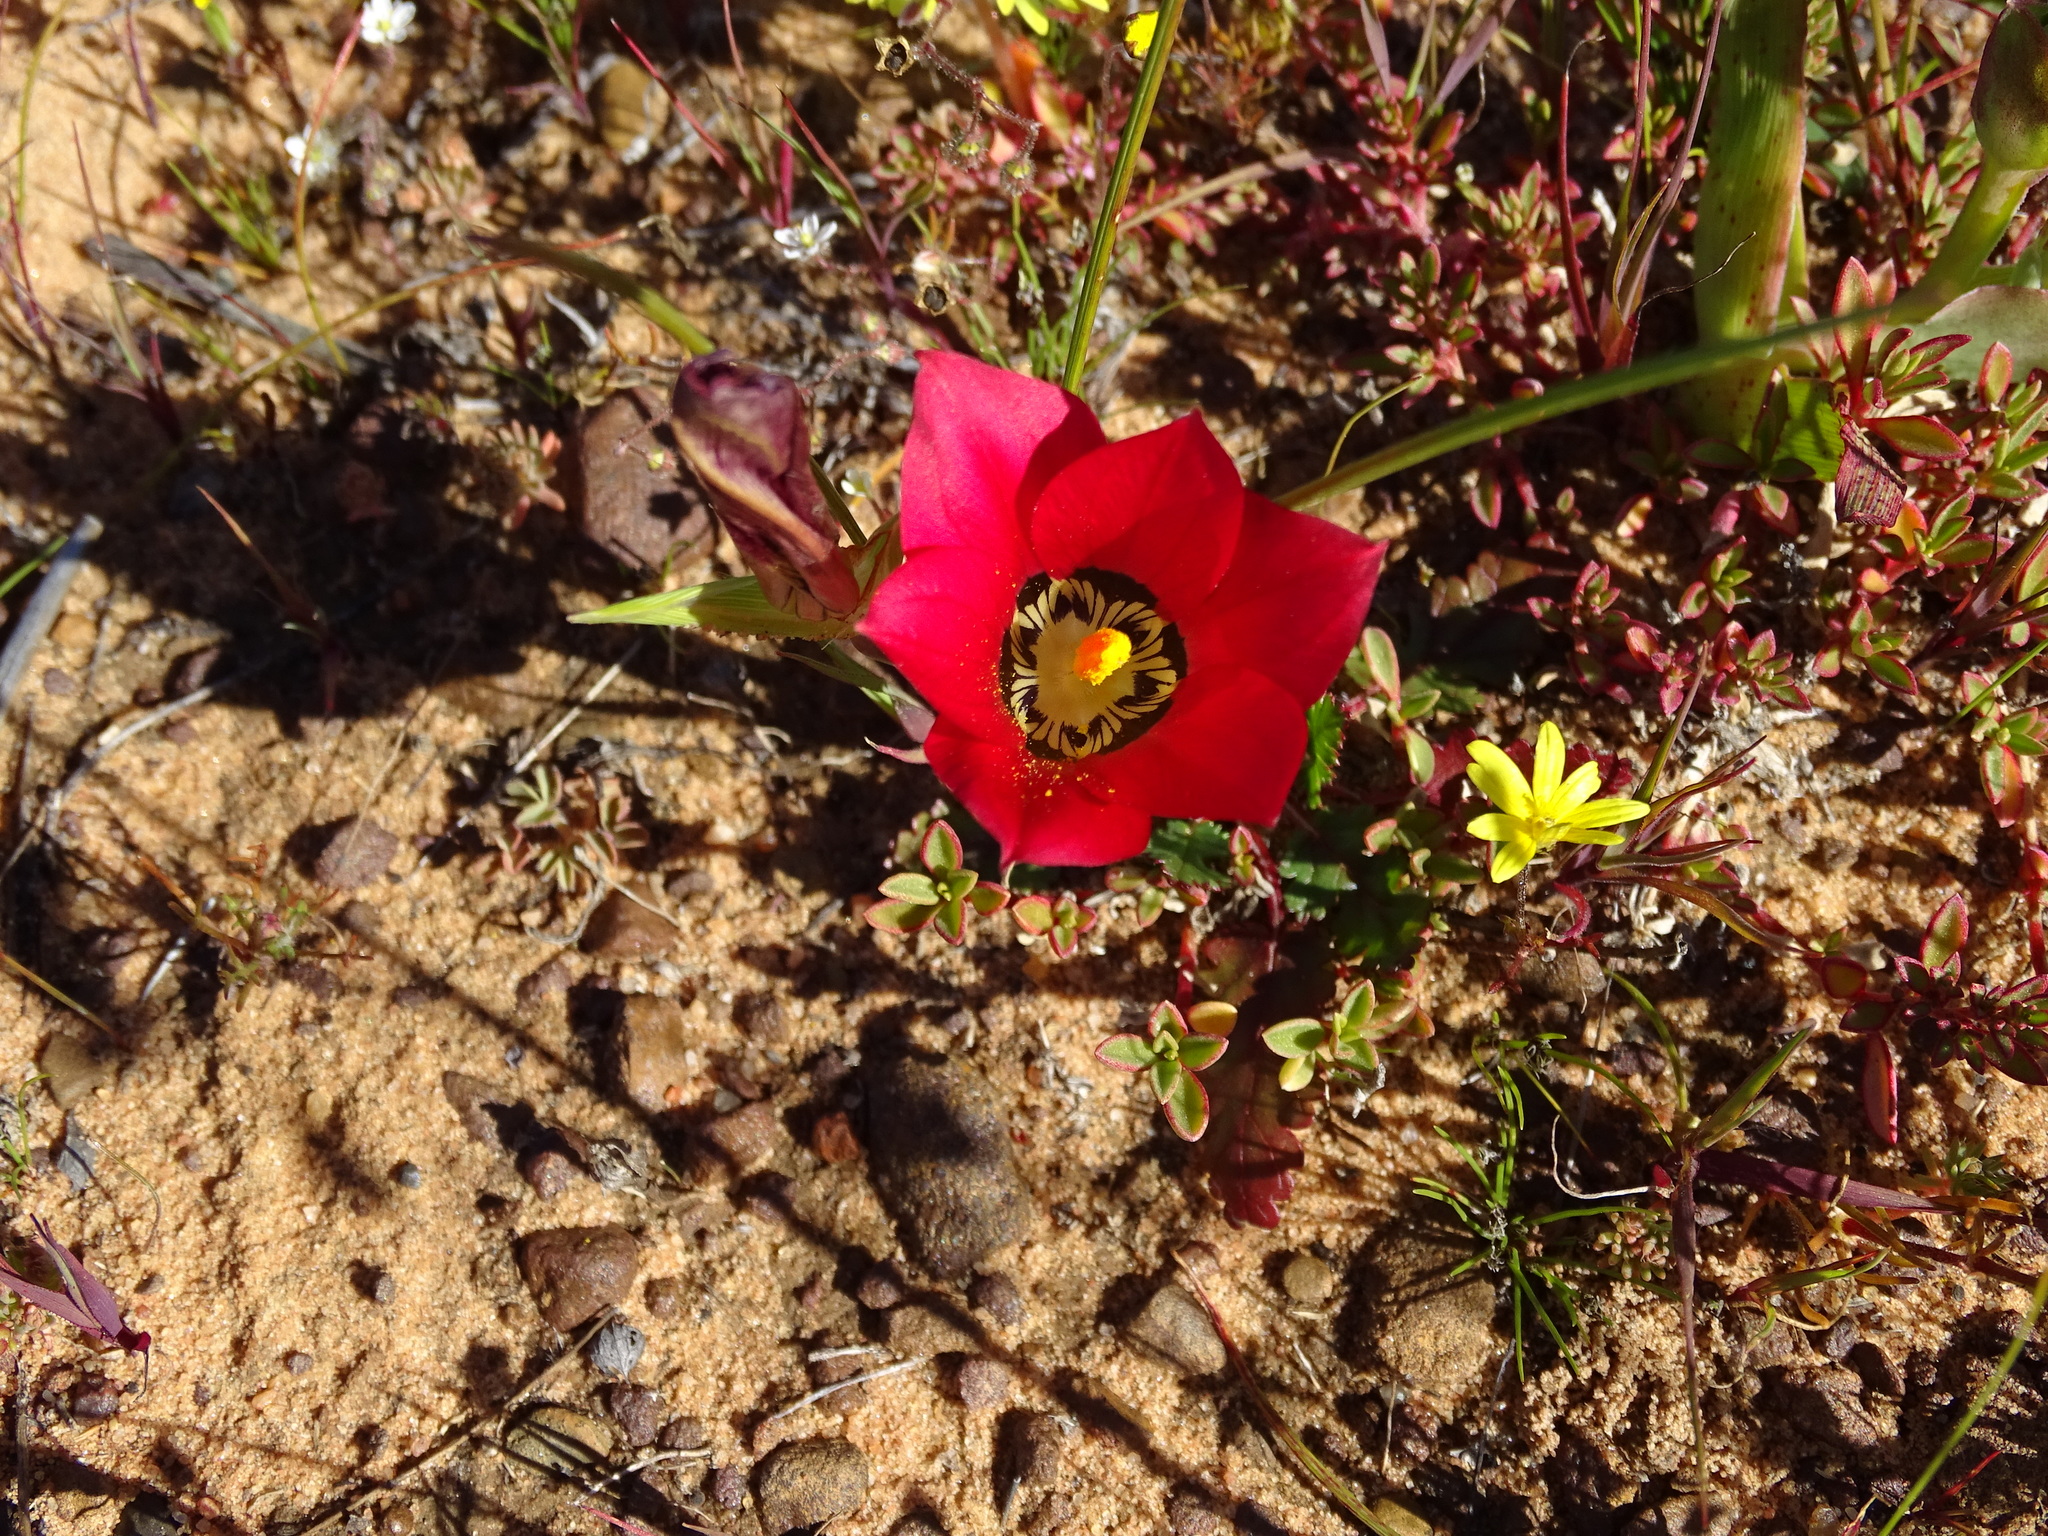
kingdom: Plantae
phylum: Tracheophyta
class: Liliopsida
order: Asparagales
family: Iridaceae
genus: Romulea
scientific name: Romulea pudica
